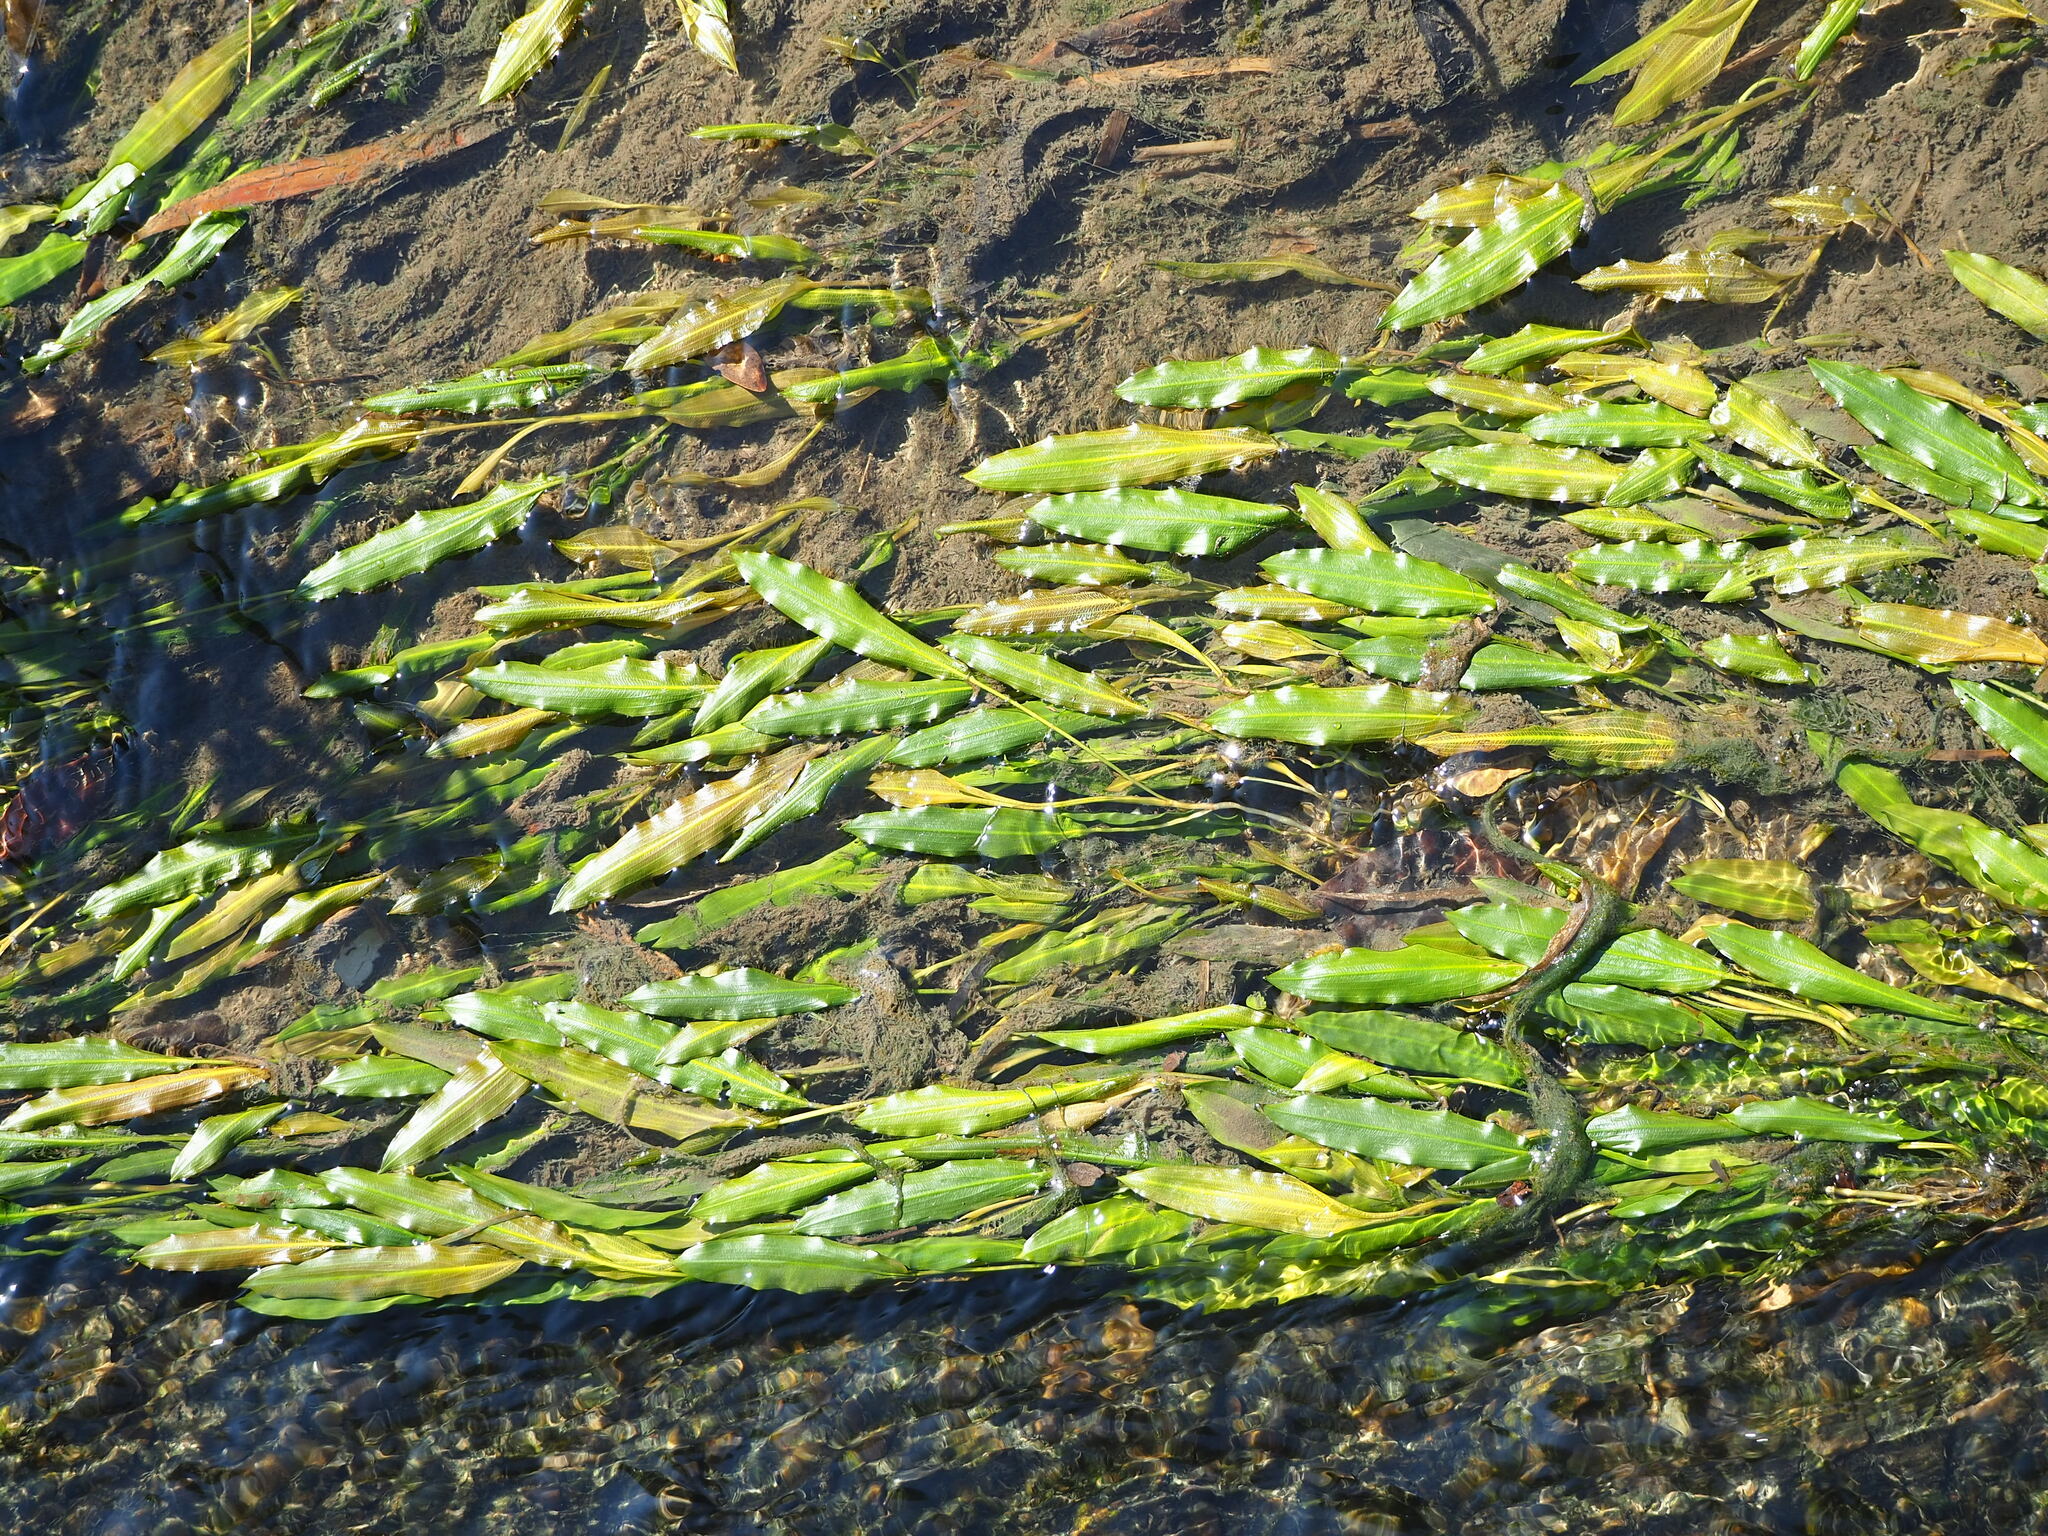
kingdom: Plantae
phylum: Tracheophyta
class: Liliopsida
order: Alismatales
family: Potamogetonaceae
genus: Potamogeton
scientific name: Potamogeton wrightii
